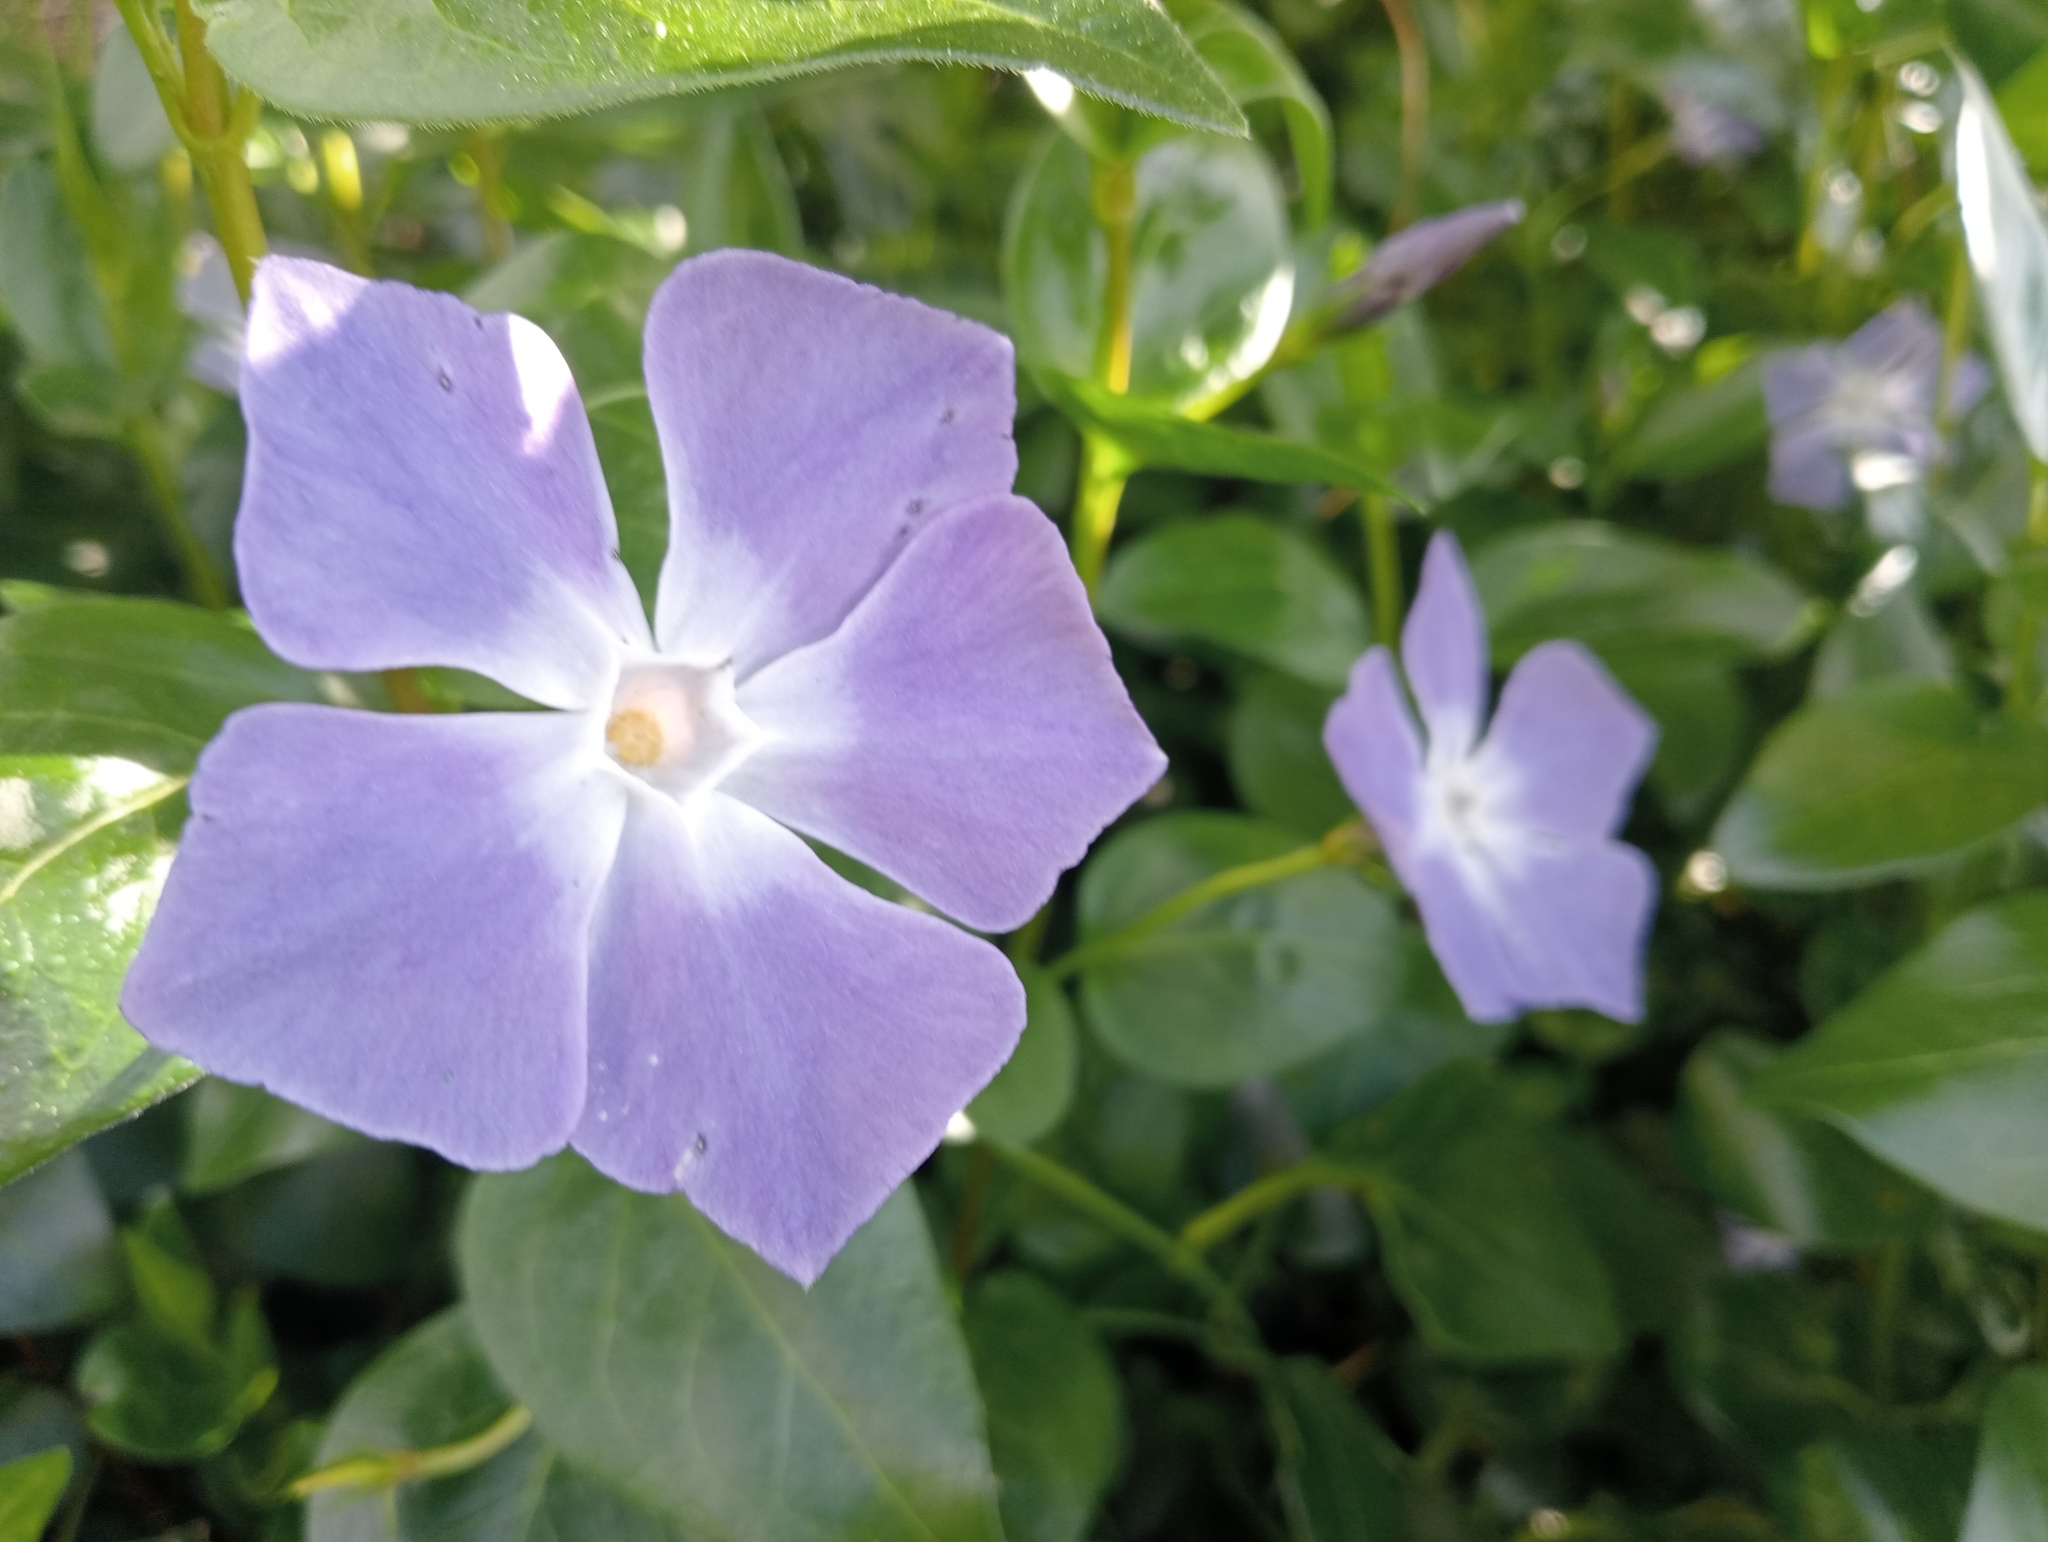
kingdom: Plantae
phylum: Tracheophyta
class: Magnoliopsida
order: Gentianales
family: Apocynaceae
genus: Vinca
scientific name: Vinca major
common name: Greater periwinkle
